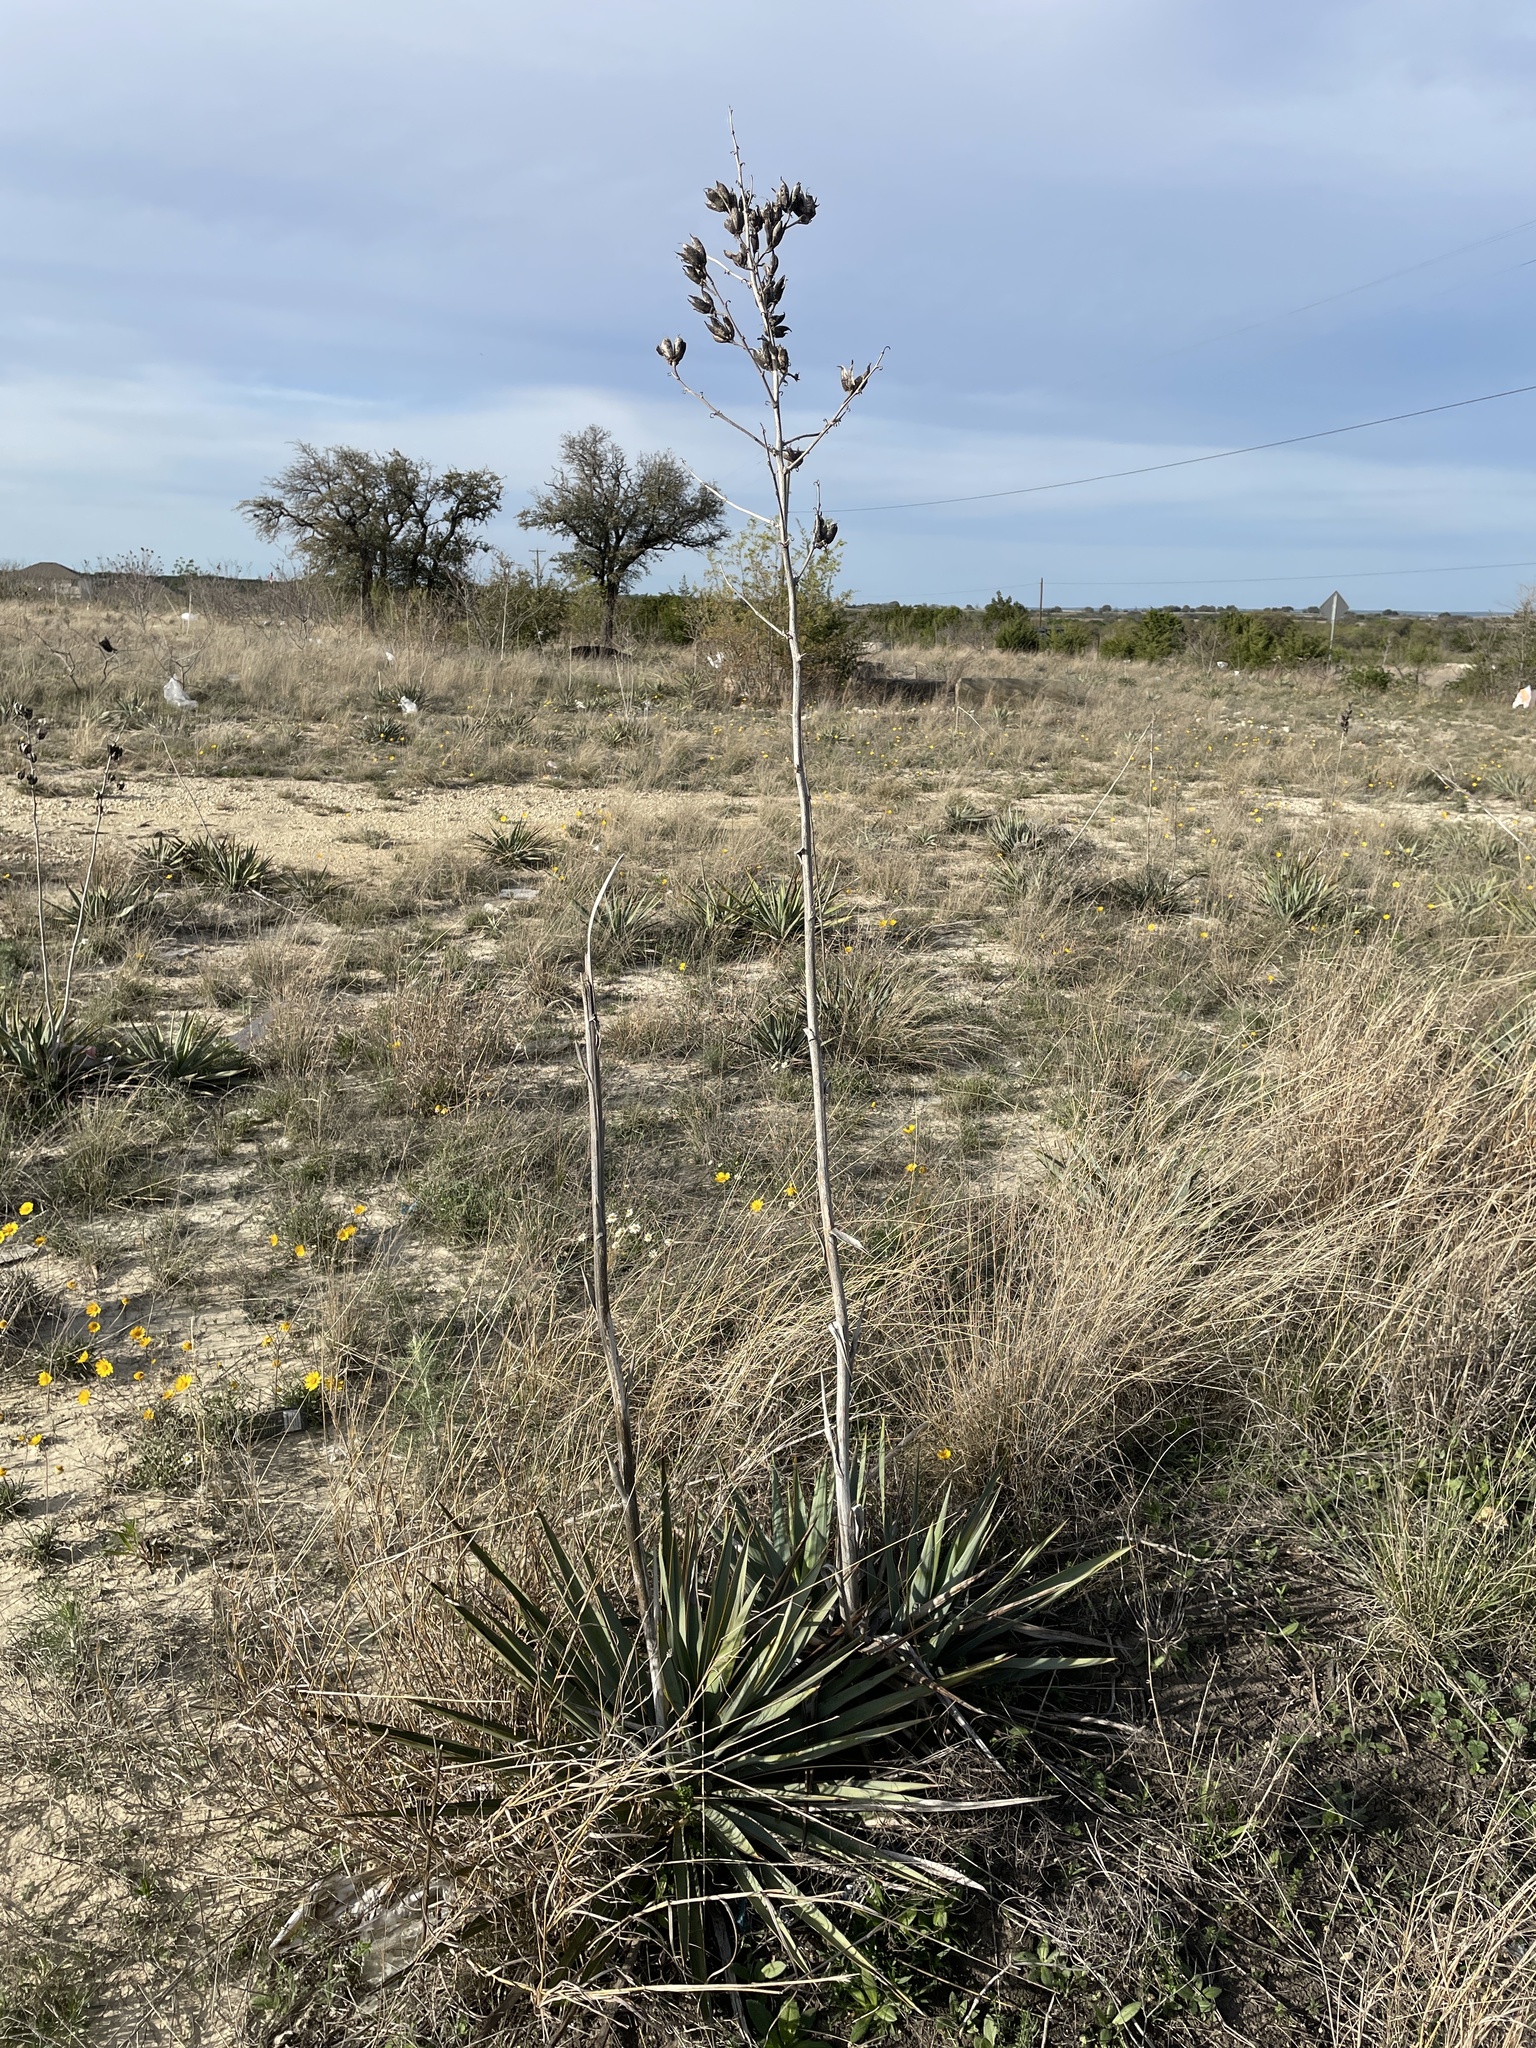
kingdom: Plantae
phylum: Tracheophyta
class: Liliopsida
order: Asparagales
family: Asparagaceae
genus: Yucca
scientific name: Yucca pallida
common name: Pale leaf yucca
